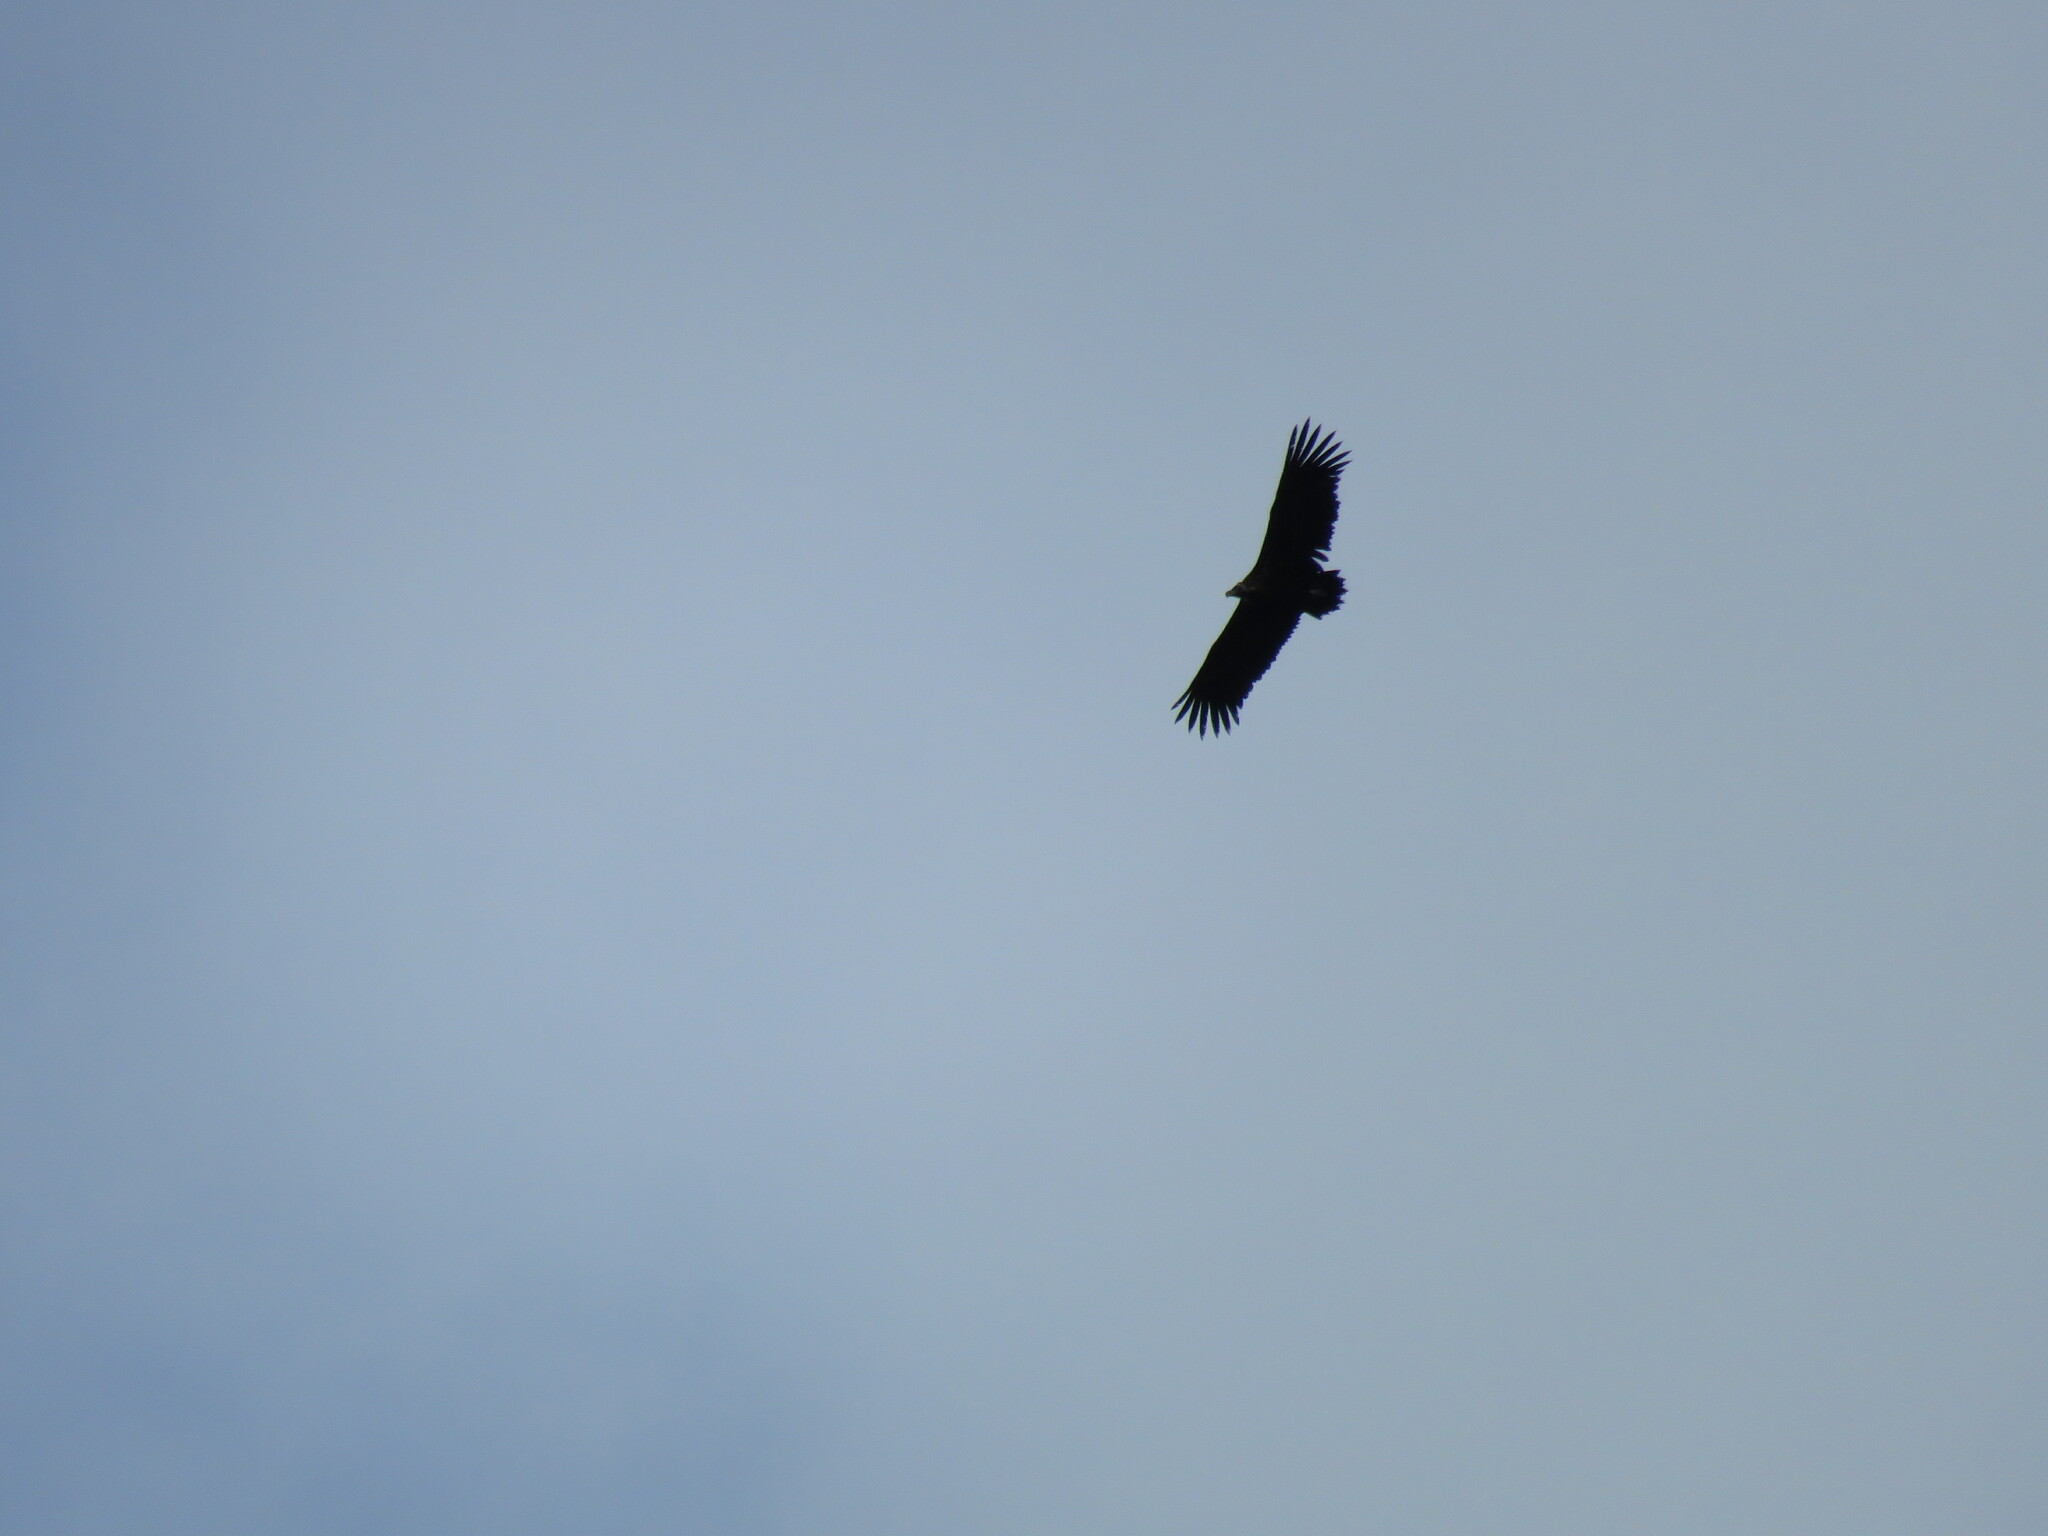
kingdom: Animalia
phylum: Chordata
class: Aves
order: Accipitriformes
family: Accipitridae
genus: Aegypius
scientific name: Aegypius monachus
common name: Cinereous vulture
